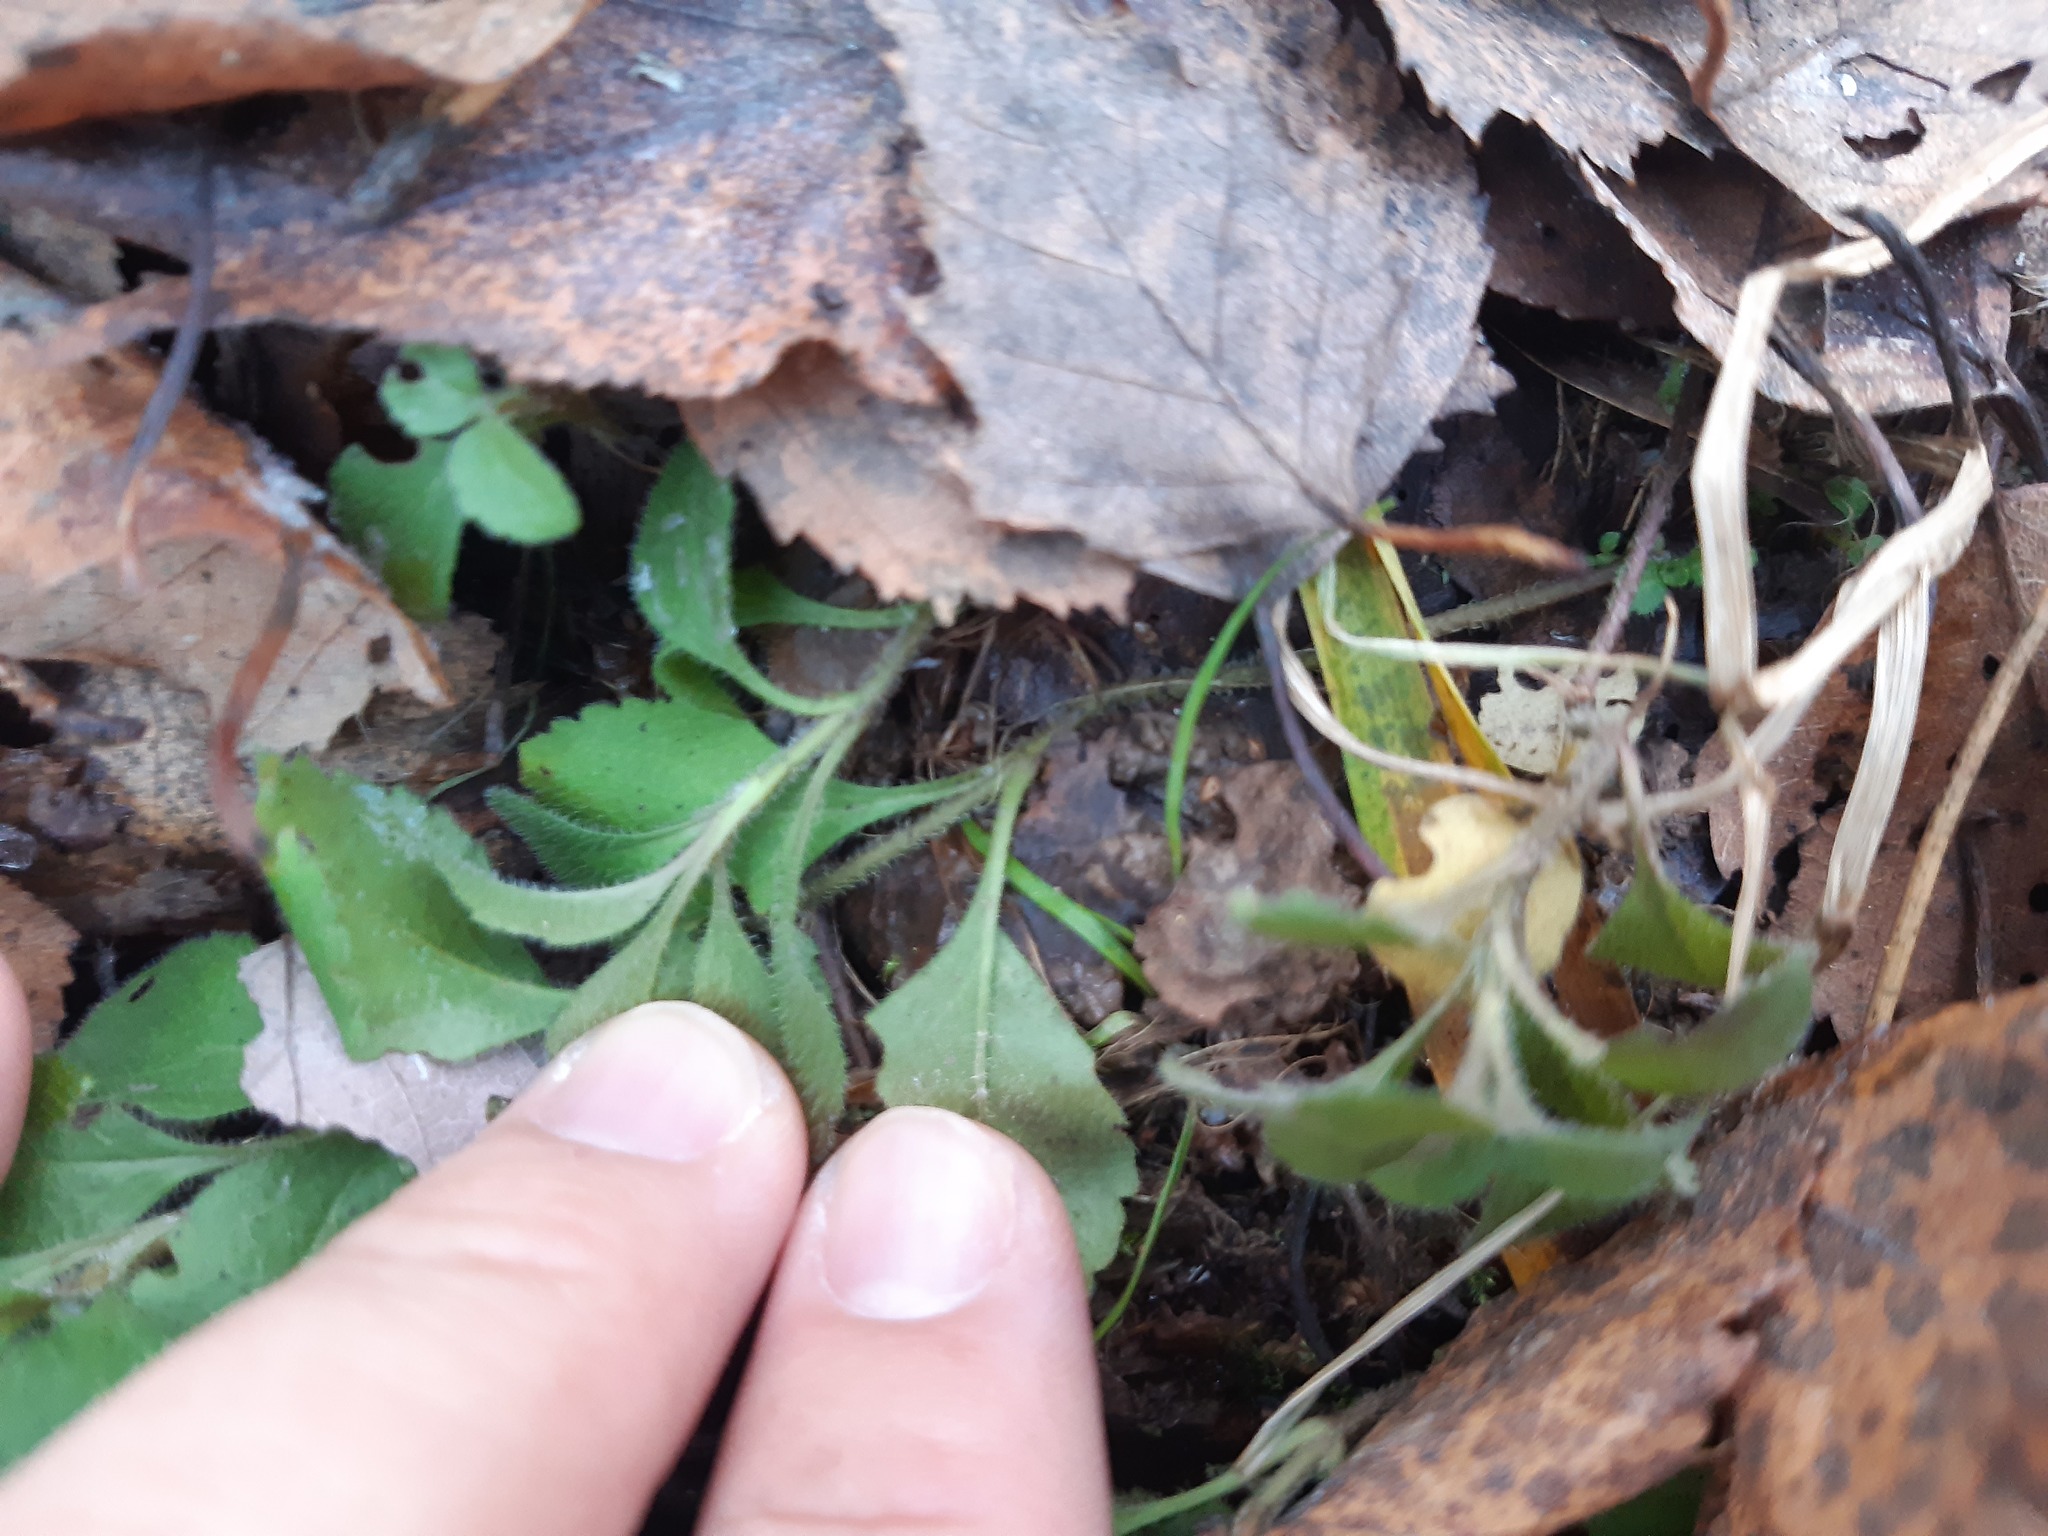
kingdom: Plantae
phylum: Tracheophyta
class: Magnoliopsida
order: Lamiales
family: Plantaginaceae
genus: Veronica
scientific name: Veronica officinalis
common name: Common speedwell
